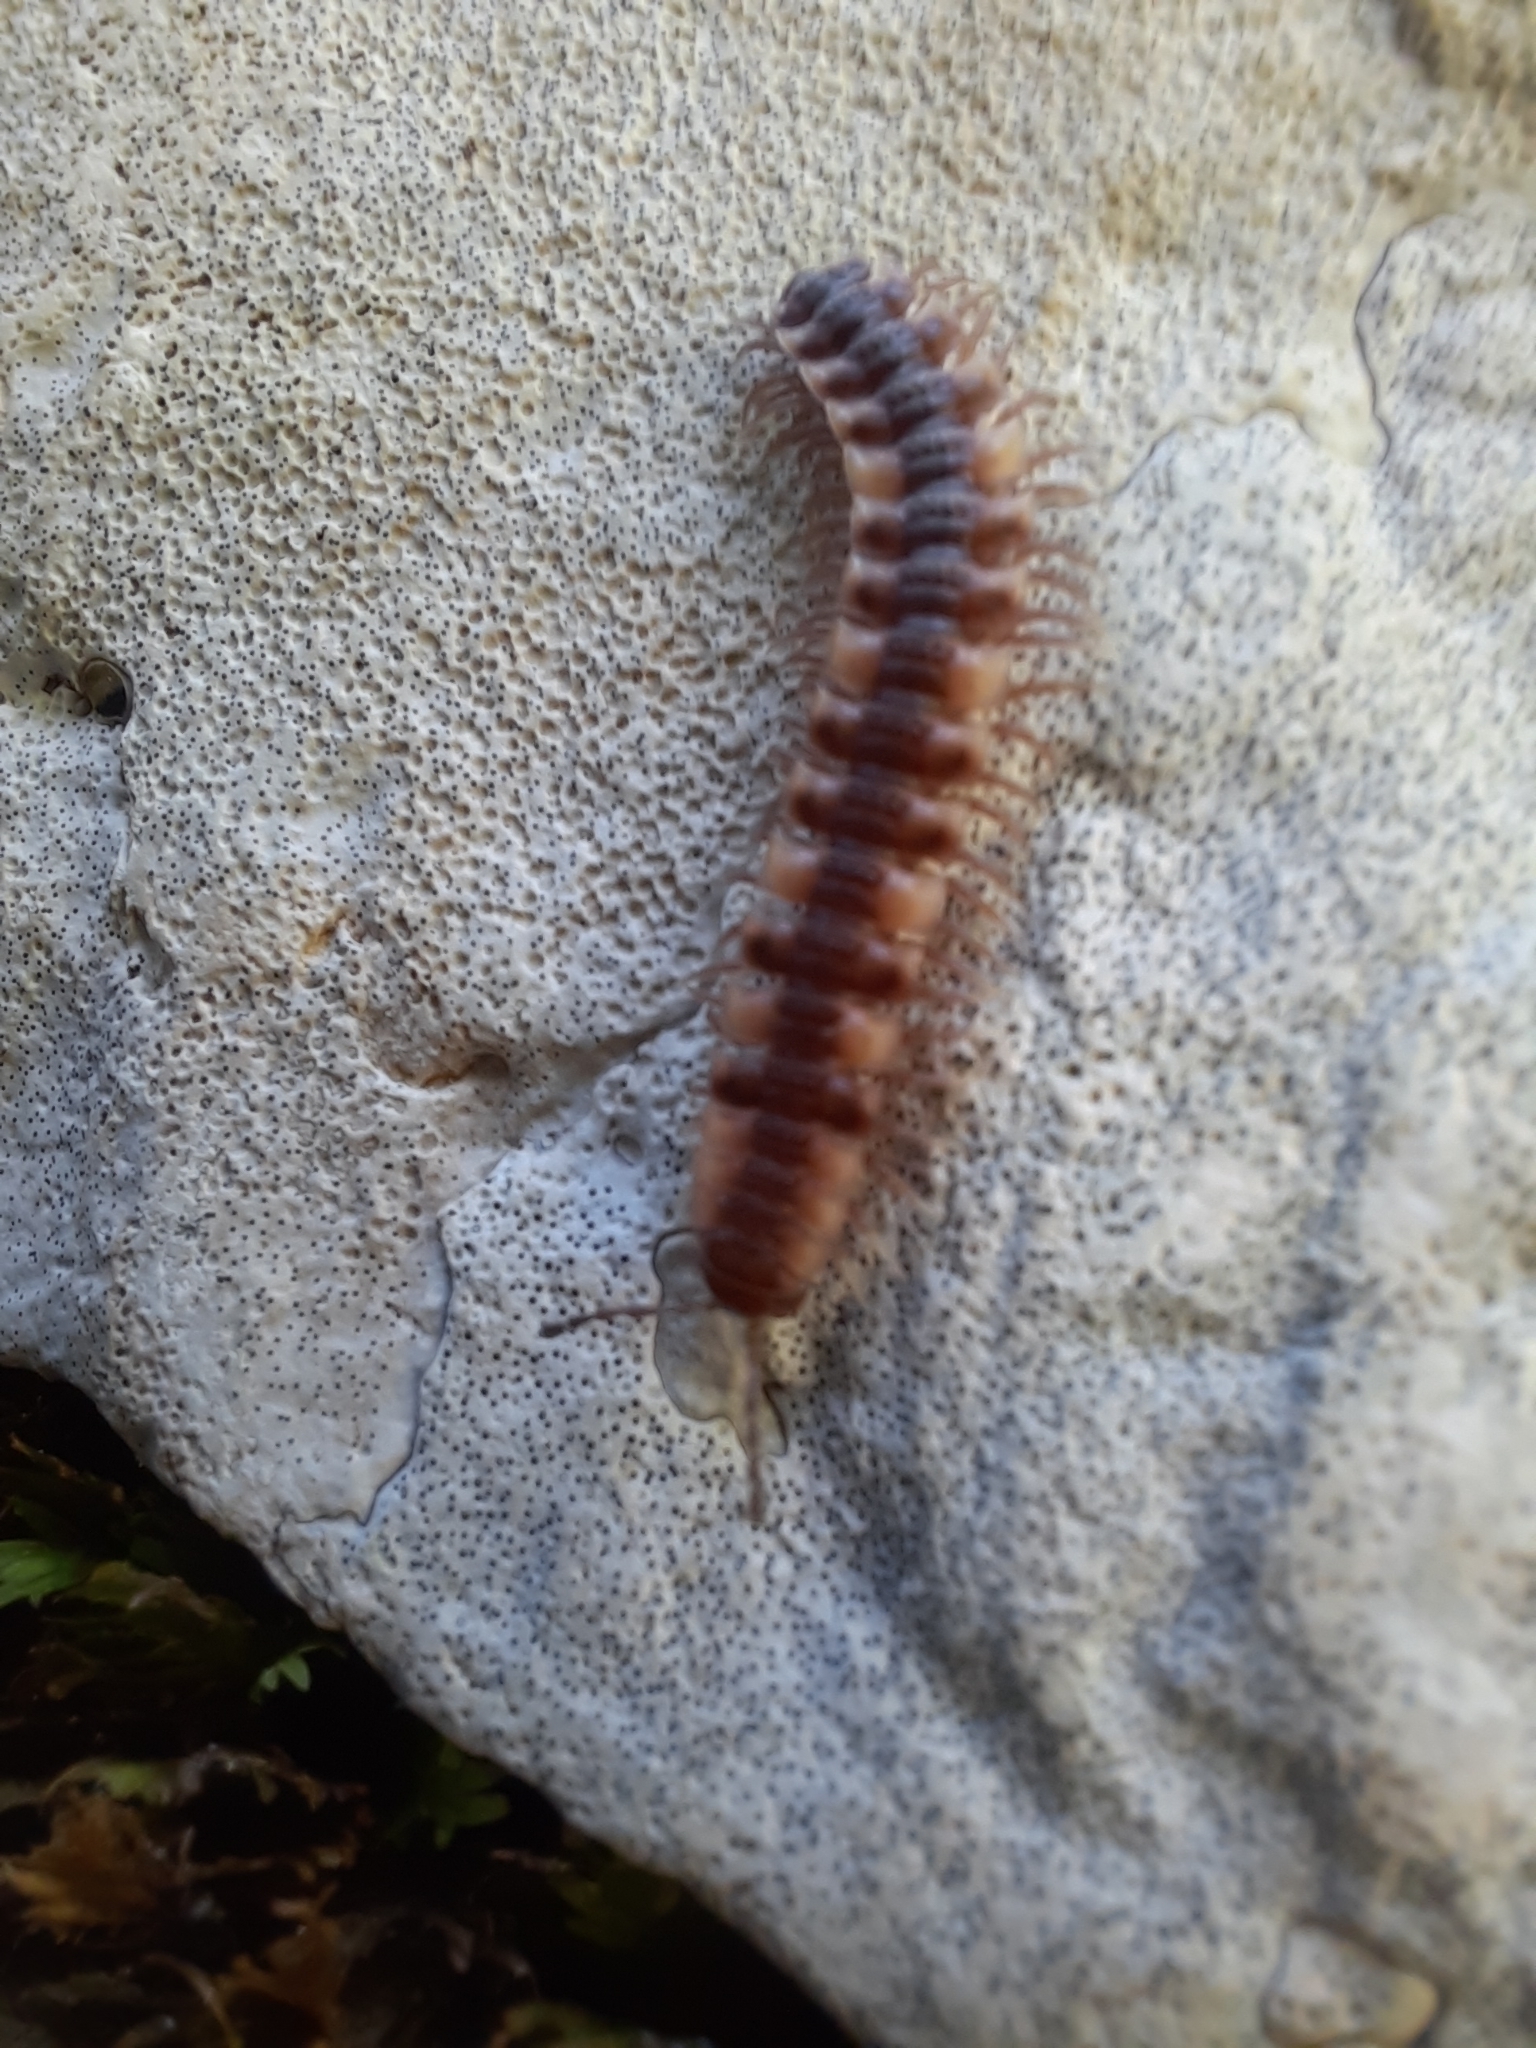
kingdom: Animalia
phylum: Arthropoda
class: Diplopoda
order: Polydesmida
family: Polydesmidae
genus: Polydesmus
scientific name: Polydesmus complanatus
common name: Flat-backed millipede
